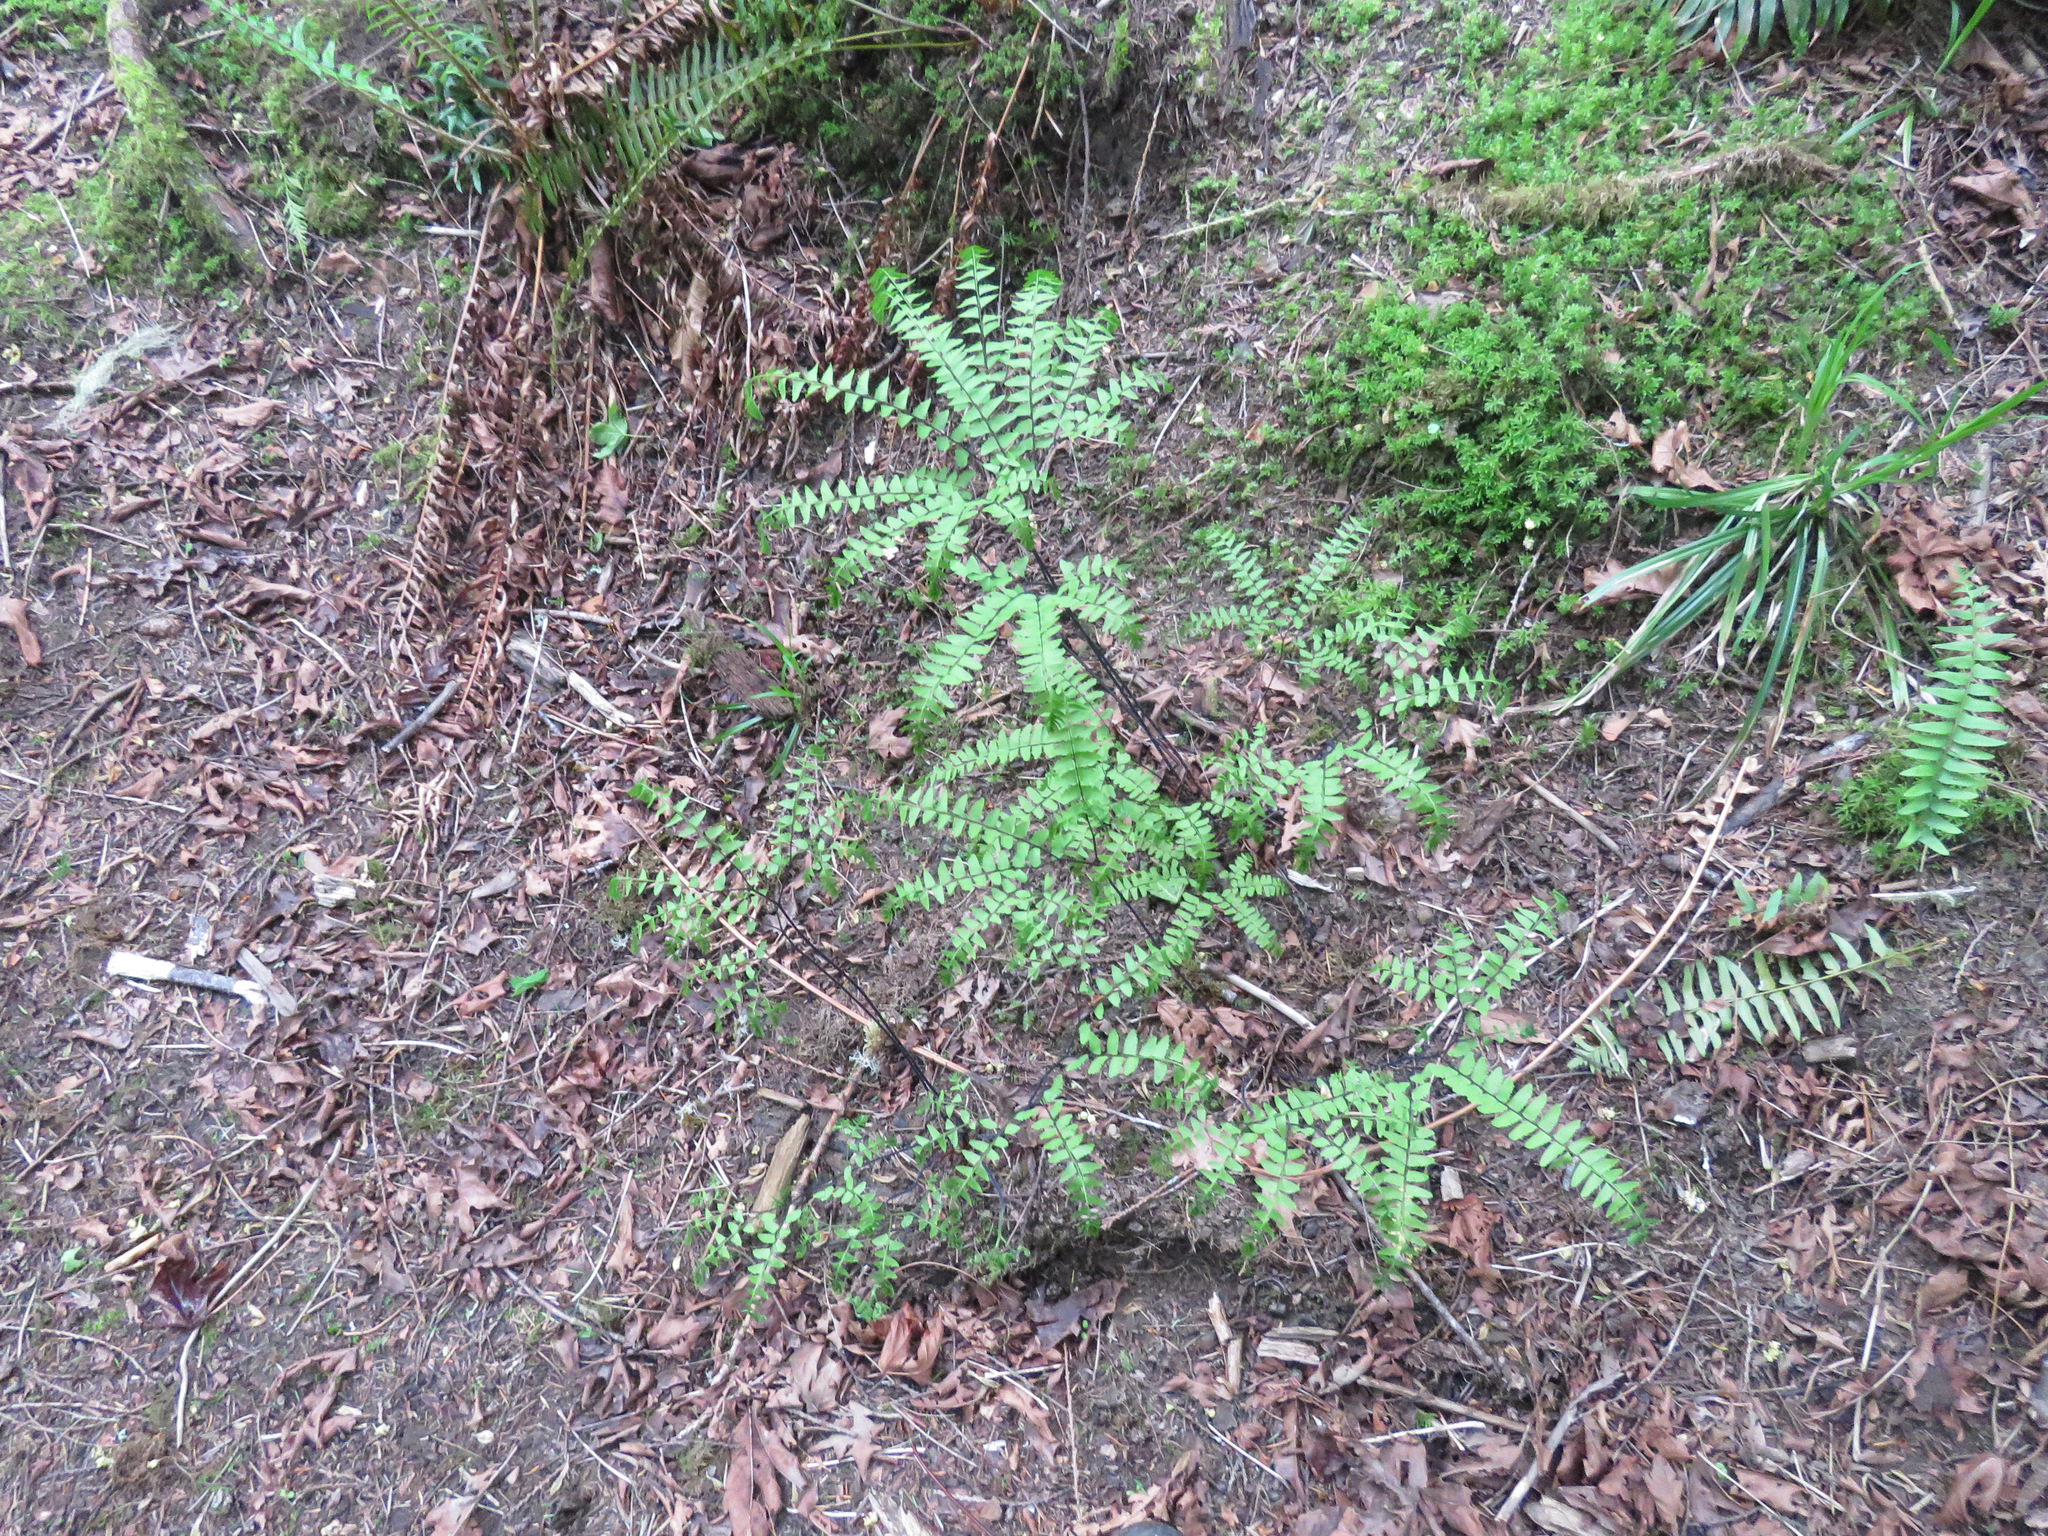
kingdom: Plantae
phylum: Tracheophyta
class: Polypodiopsida
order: Polypodiales
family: Pteridaceae
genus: Adiantum
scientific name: Adiantum aleuticum
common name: Aleutian maidenhair fern
